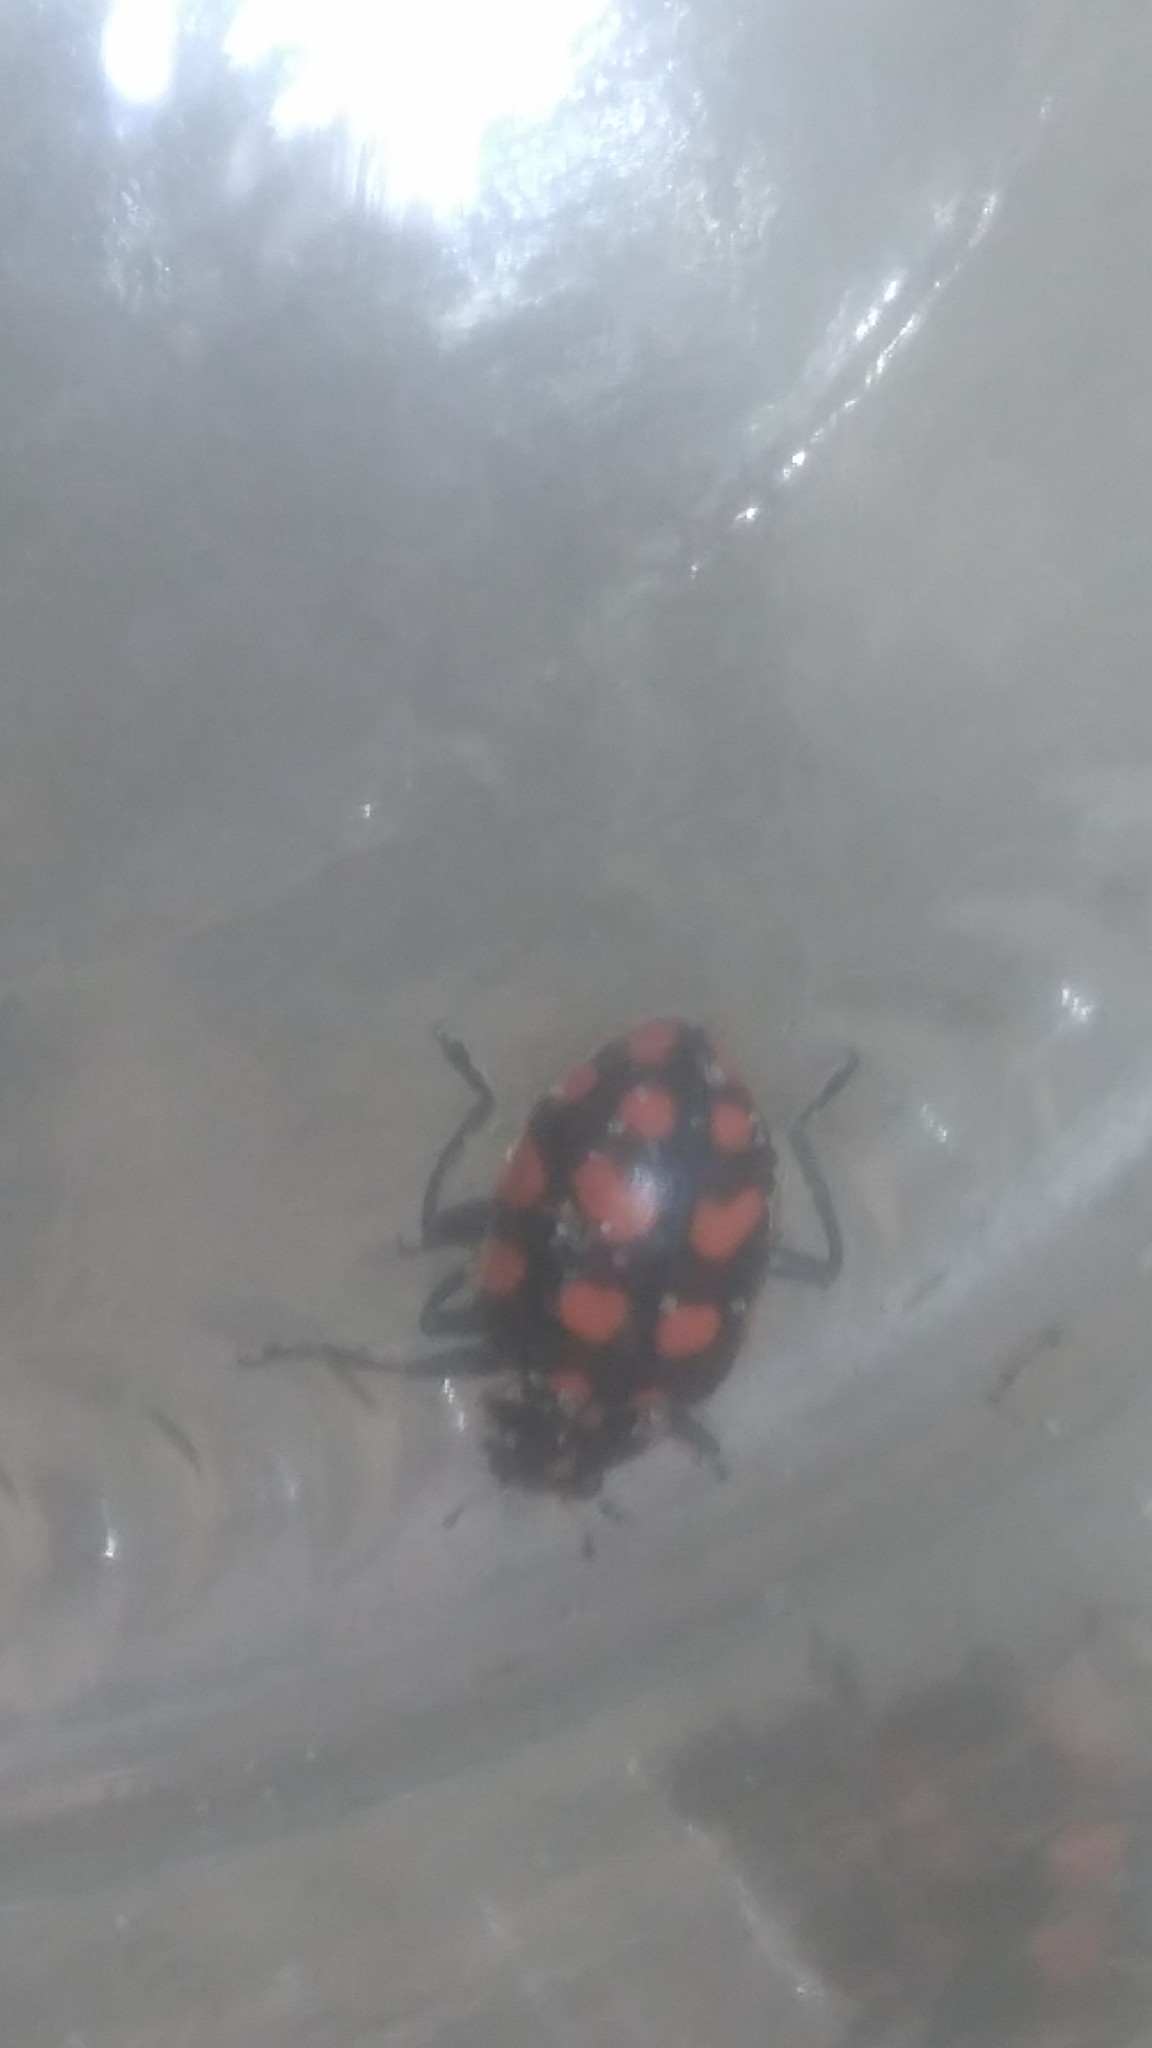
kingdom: Animalia
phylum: Arthropoda
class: Insecta
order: Coleoptera
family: Coccinellidae
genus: Coleomegilla
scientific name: Coleomegilla
